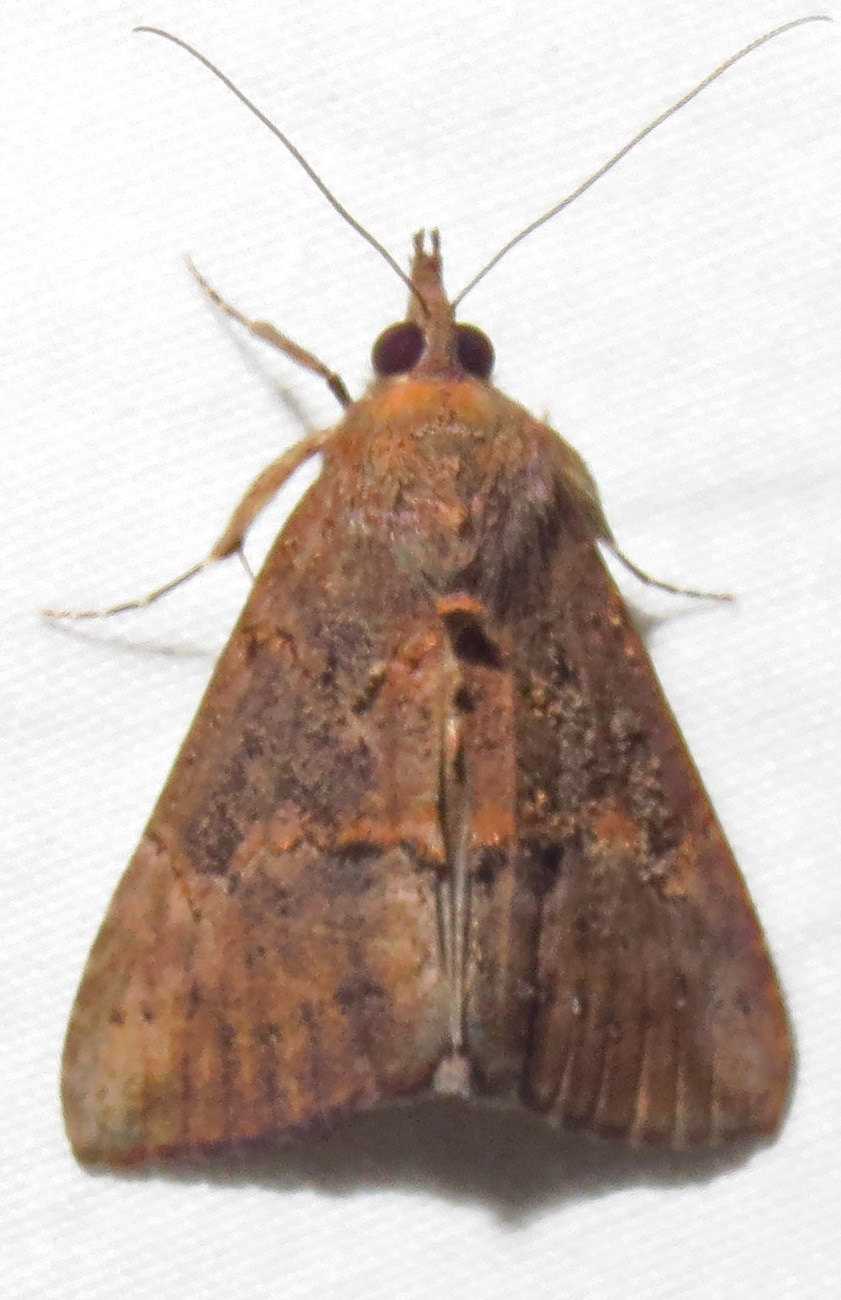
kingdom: Animalia
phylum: Arthropoda
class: Insecta
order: Lepidoptera
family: Erebidae
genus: Hypena
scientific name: Hypena scabra
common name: Green cloverworm
